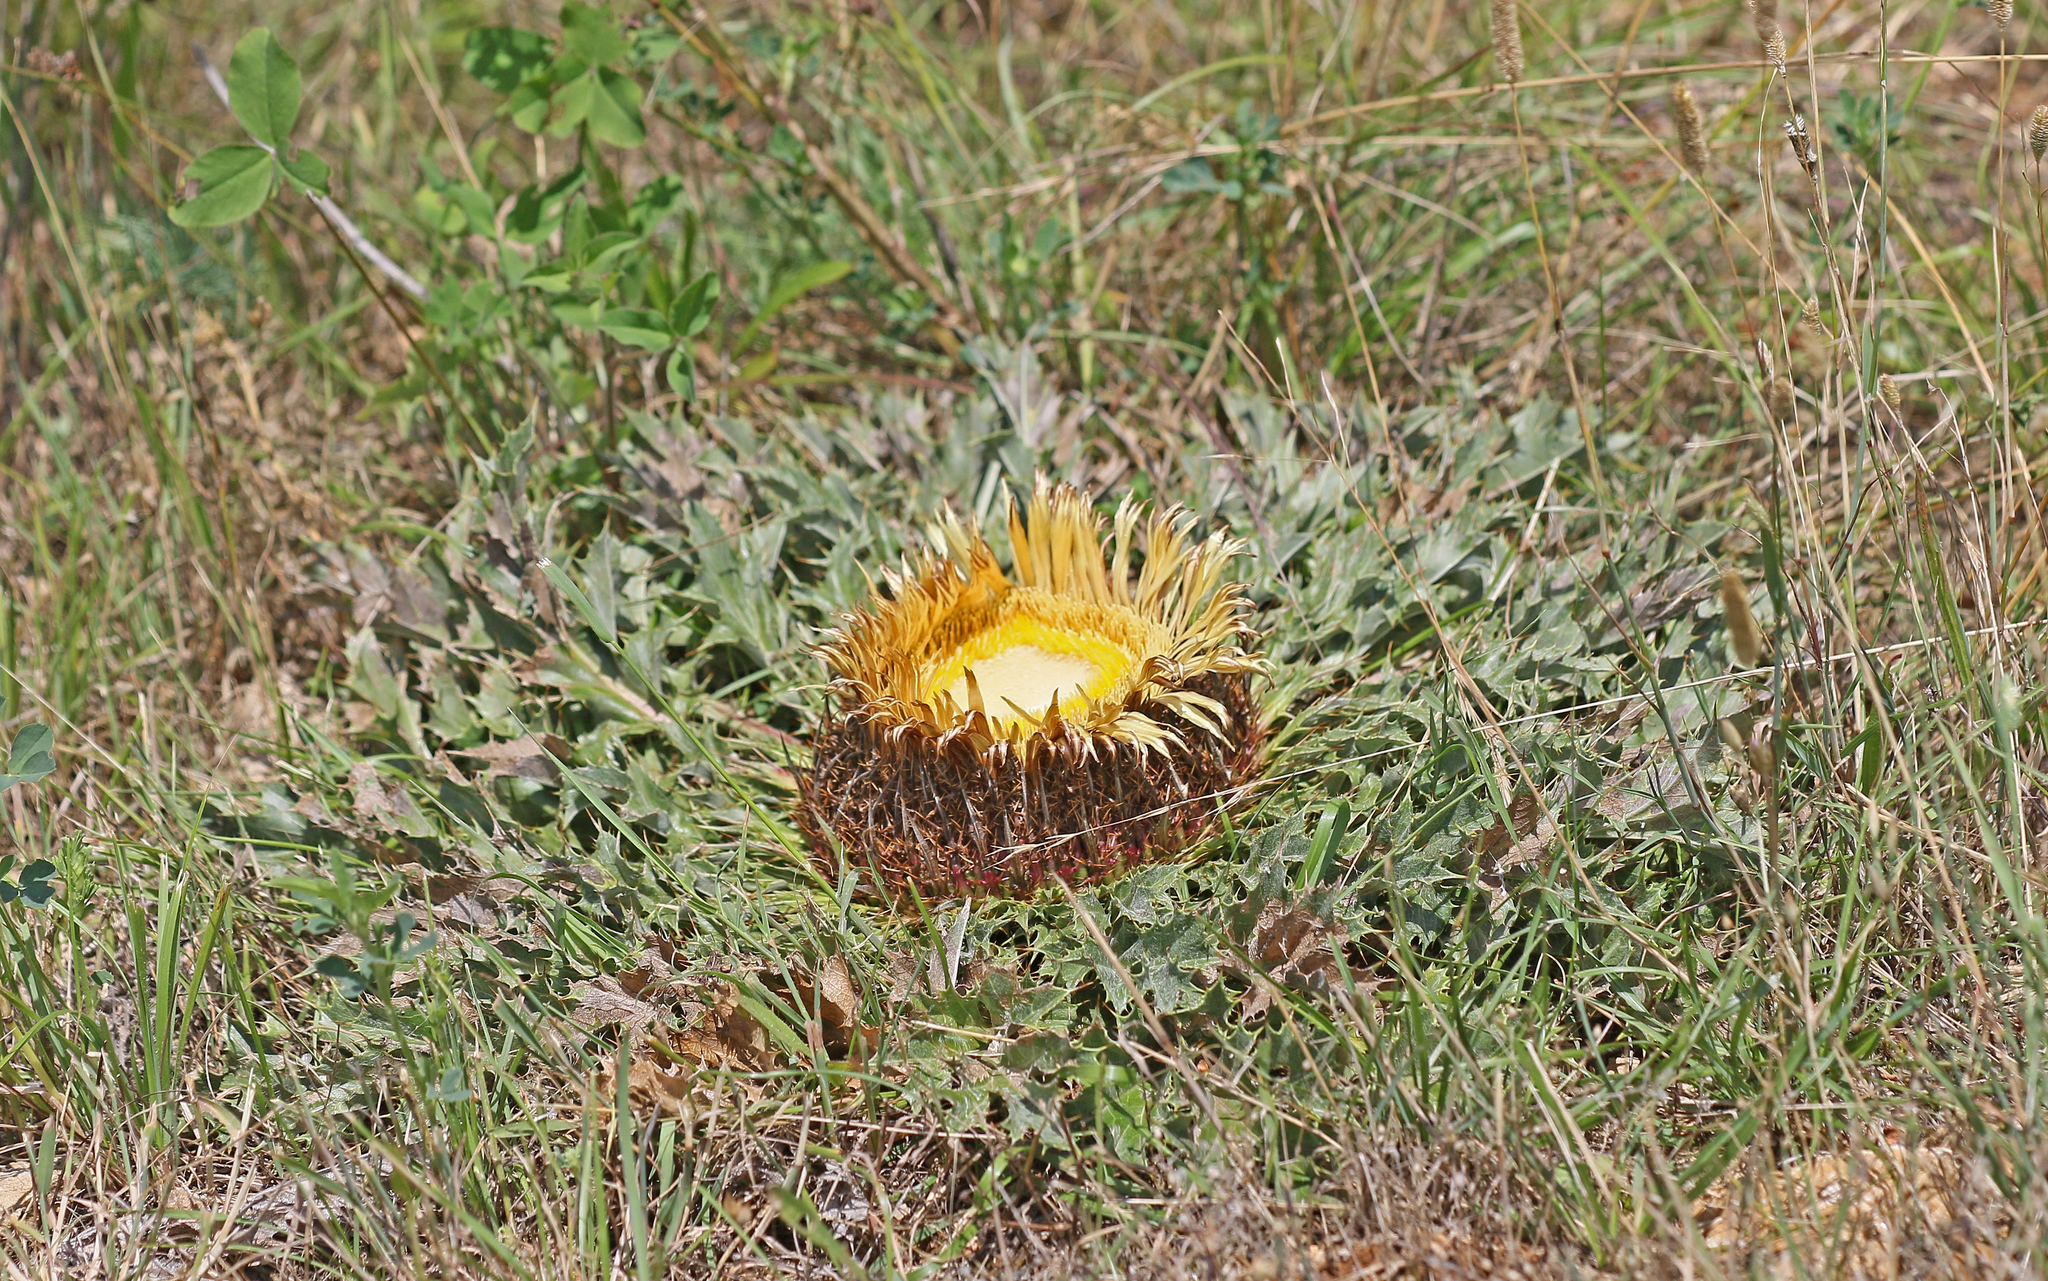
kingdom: Plantae
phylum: Tracheophyta
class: Magnoliopsida
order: Asterales
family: Asteraceae
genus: Carlina
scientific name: Carlina acanthifolia
